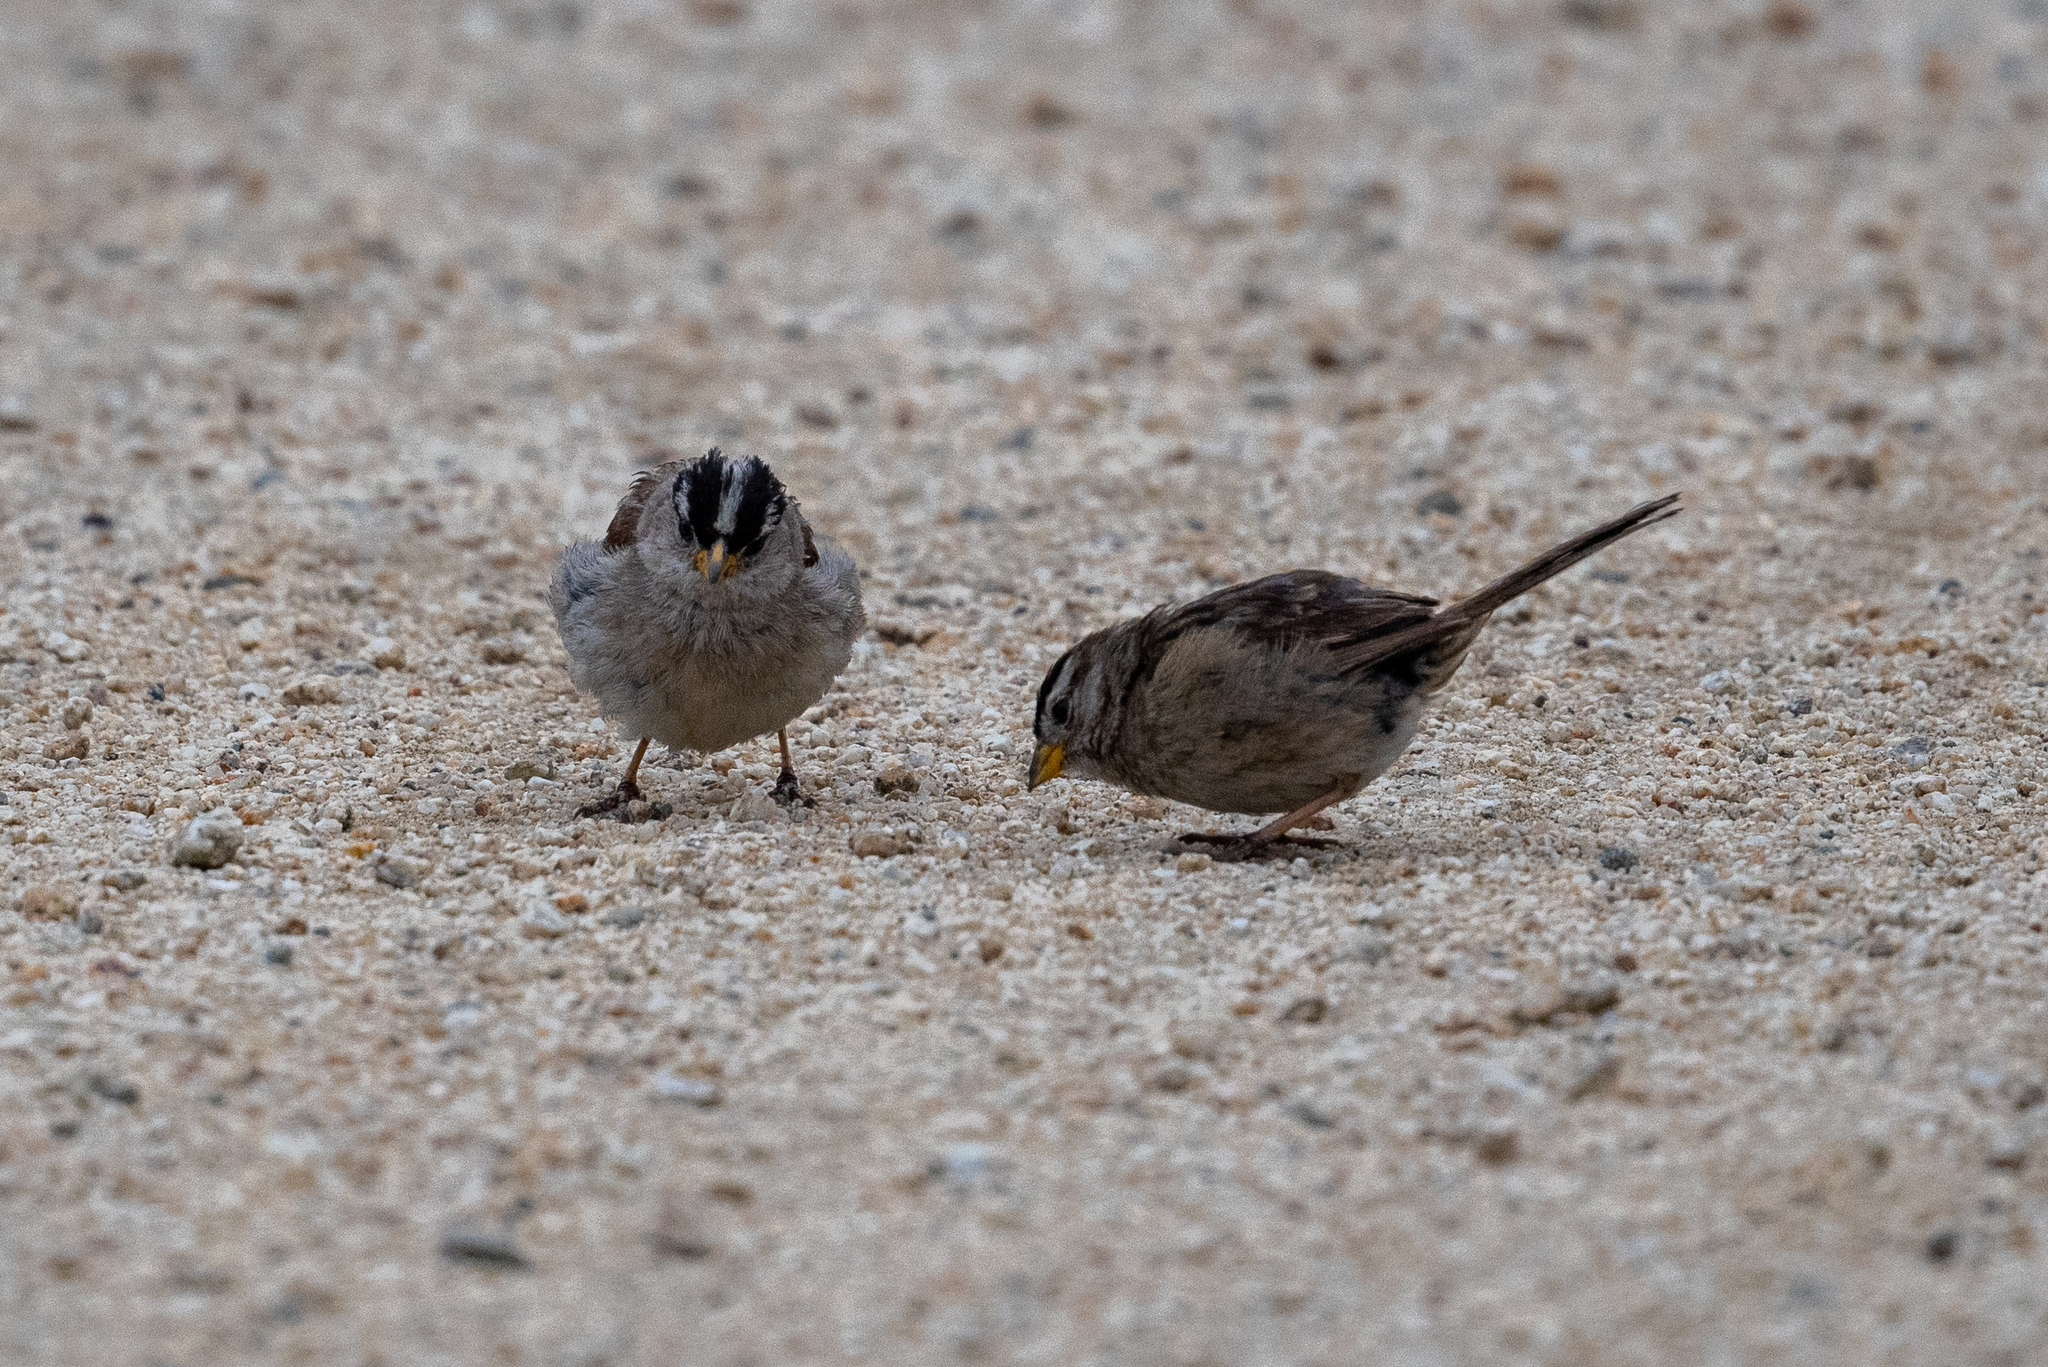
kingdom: Animalia
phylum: Chordata
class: Aves
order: Passeriformes
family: Passerellidae
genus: Zonotrichia
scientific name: Zonotrichia leucophrys
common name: White-crowned sparrow
